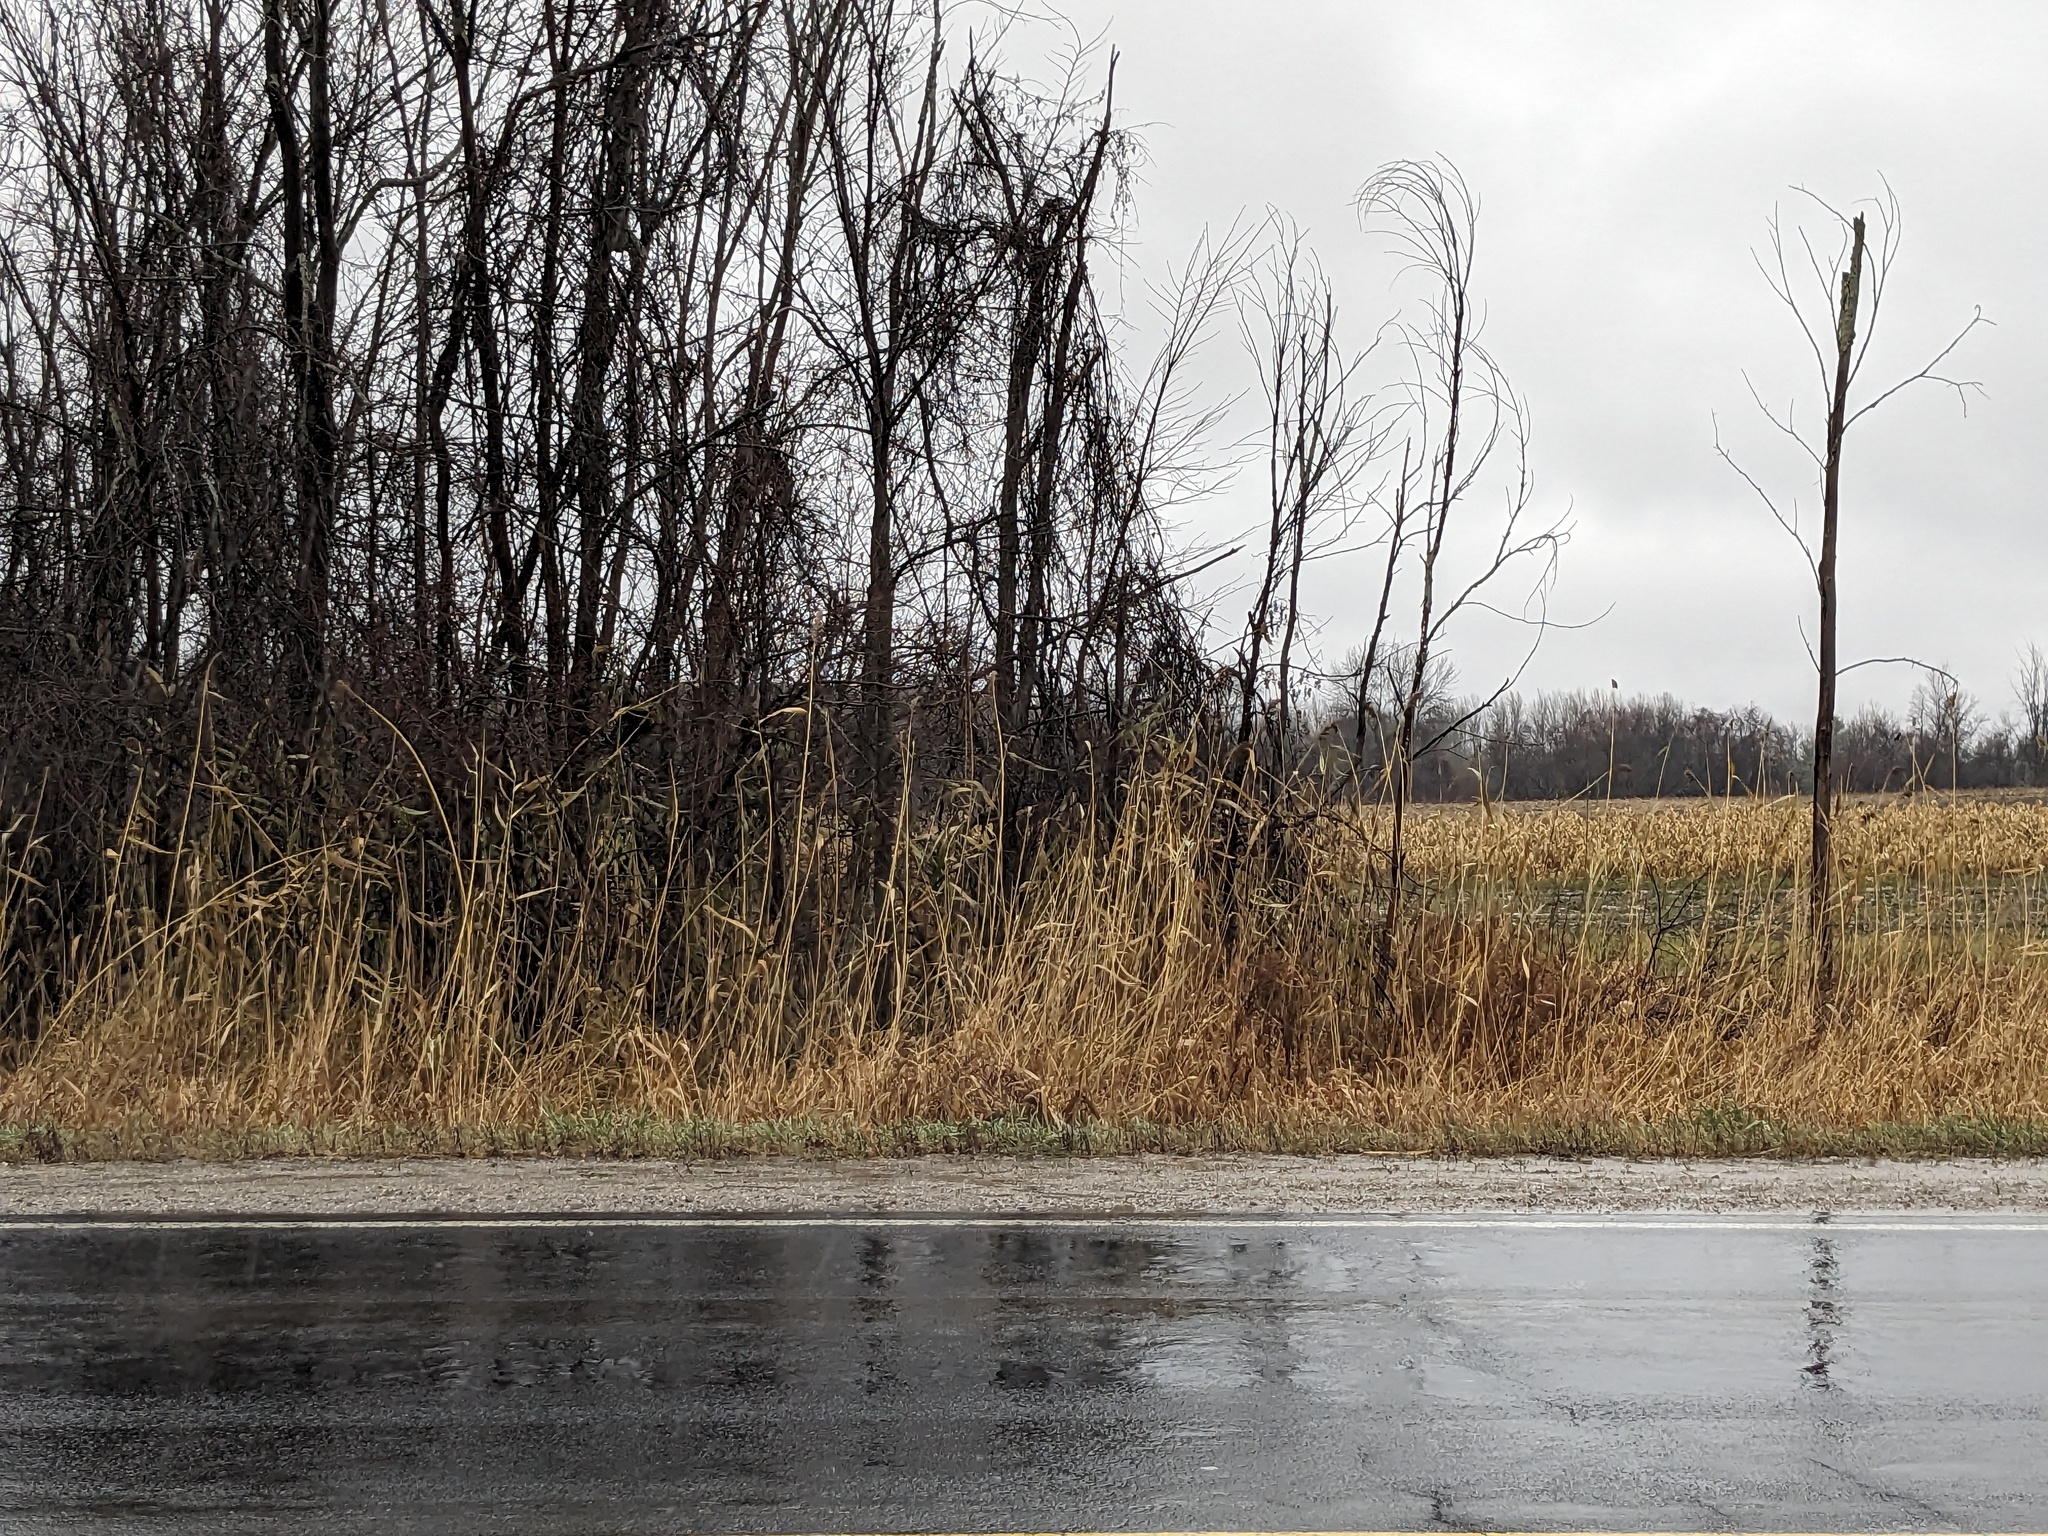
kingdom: Plantae
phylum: Tracheophyta
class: Liliopsida
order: Poales
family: Poaceae
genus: Phragmites
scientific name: Phragmites australis
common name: Common reed
